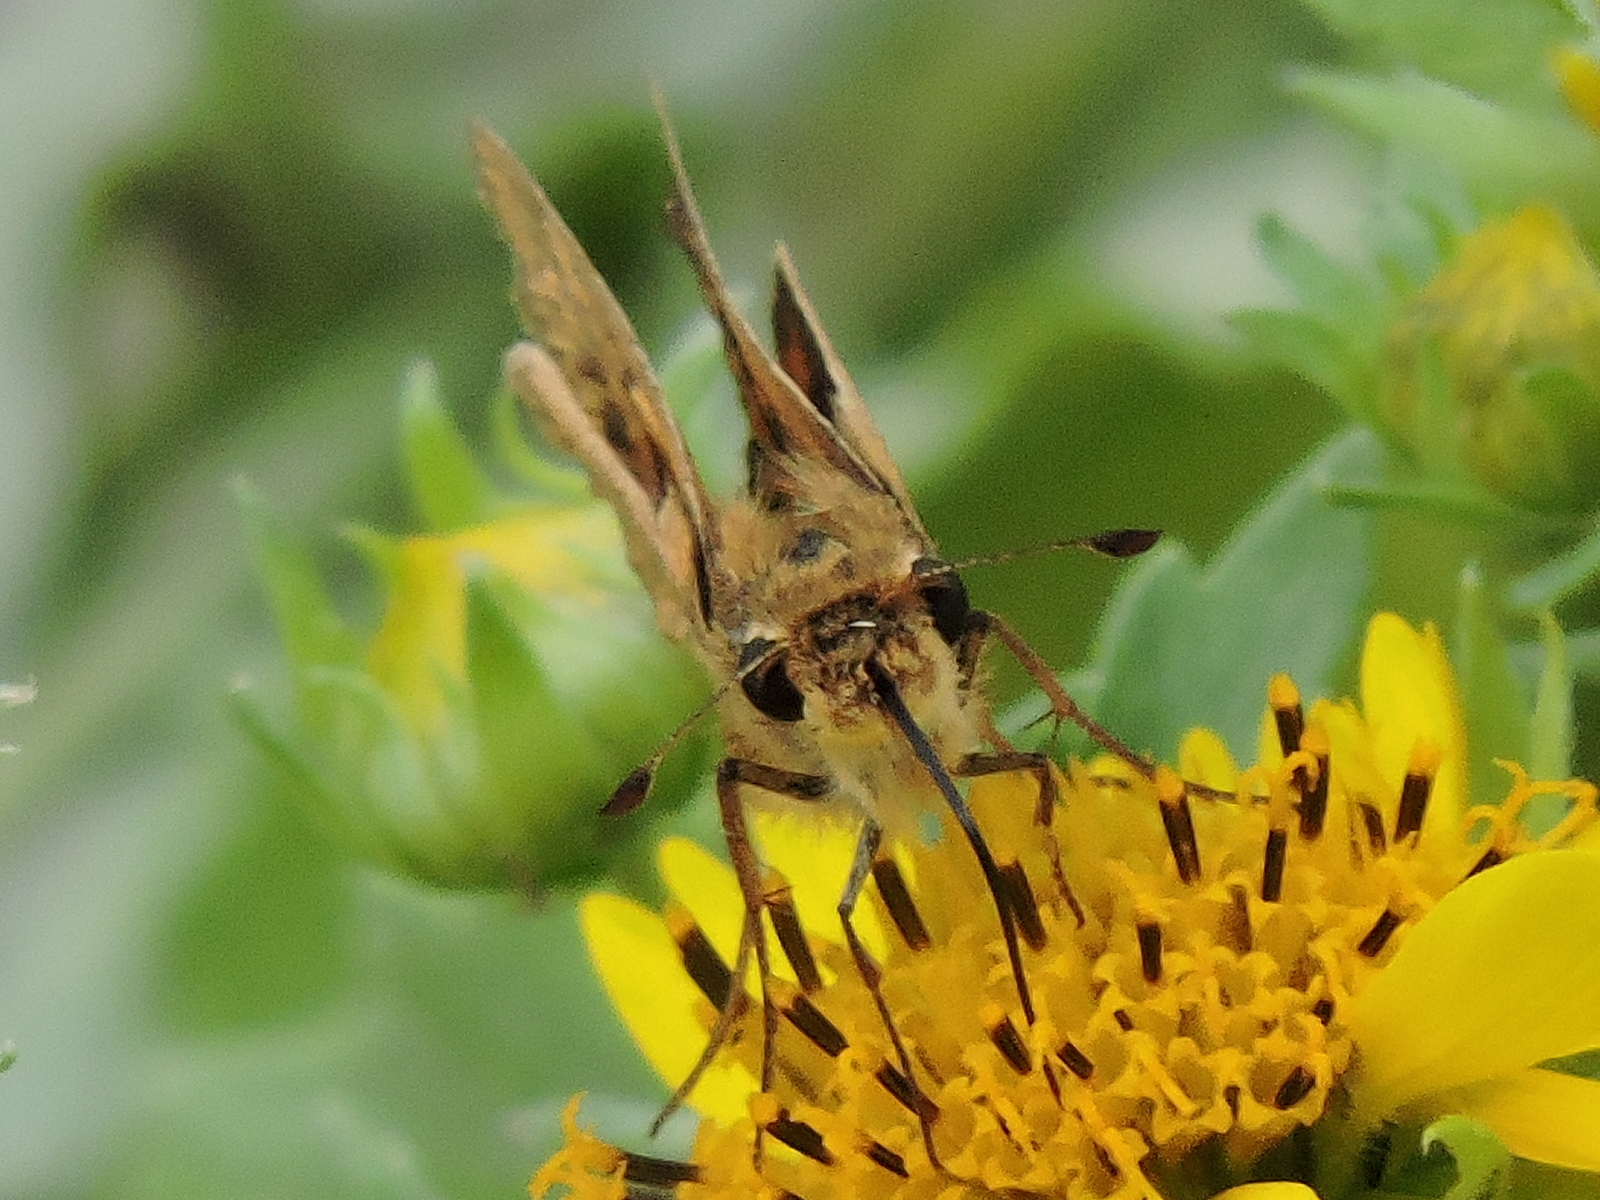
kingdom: Animalia
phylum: Arthropoda
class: Insecta
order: Lepidoptera
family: Hesperiidae
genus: Hylephila
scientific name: Hylephila phyleus
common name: Fiery skipper
